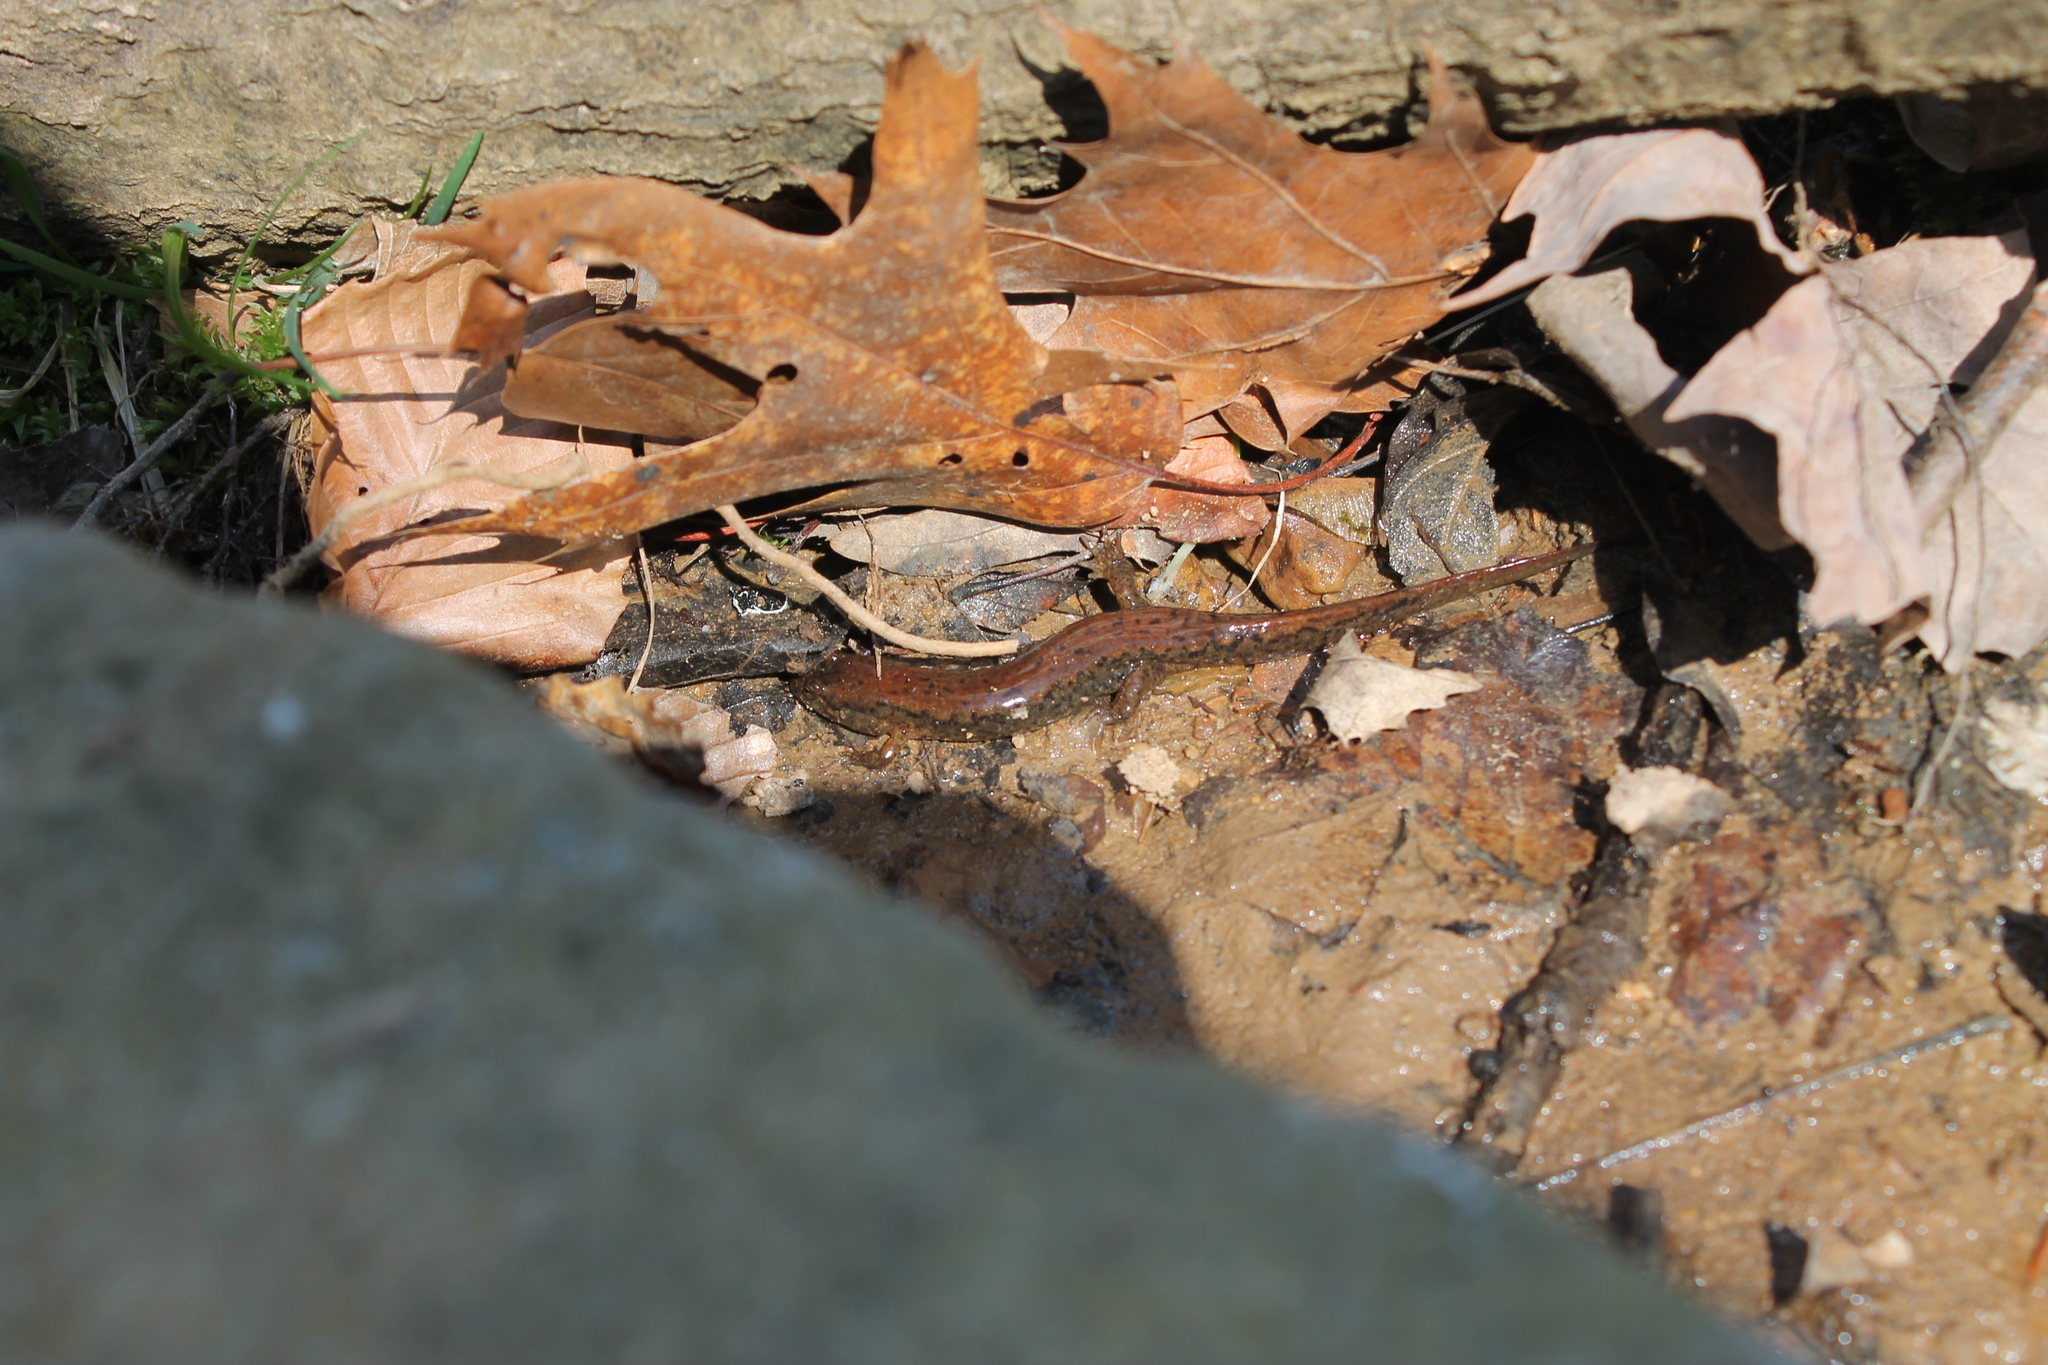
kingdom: Animalia
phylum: Chordata
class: Amphibia
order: Caudata
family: Plethodontidae
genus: Desmognathus
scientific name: Desmognathus fuscus
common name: Northern dusky salamander
